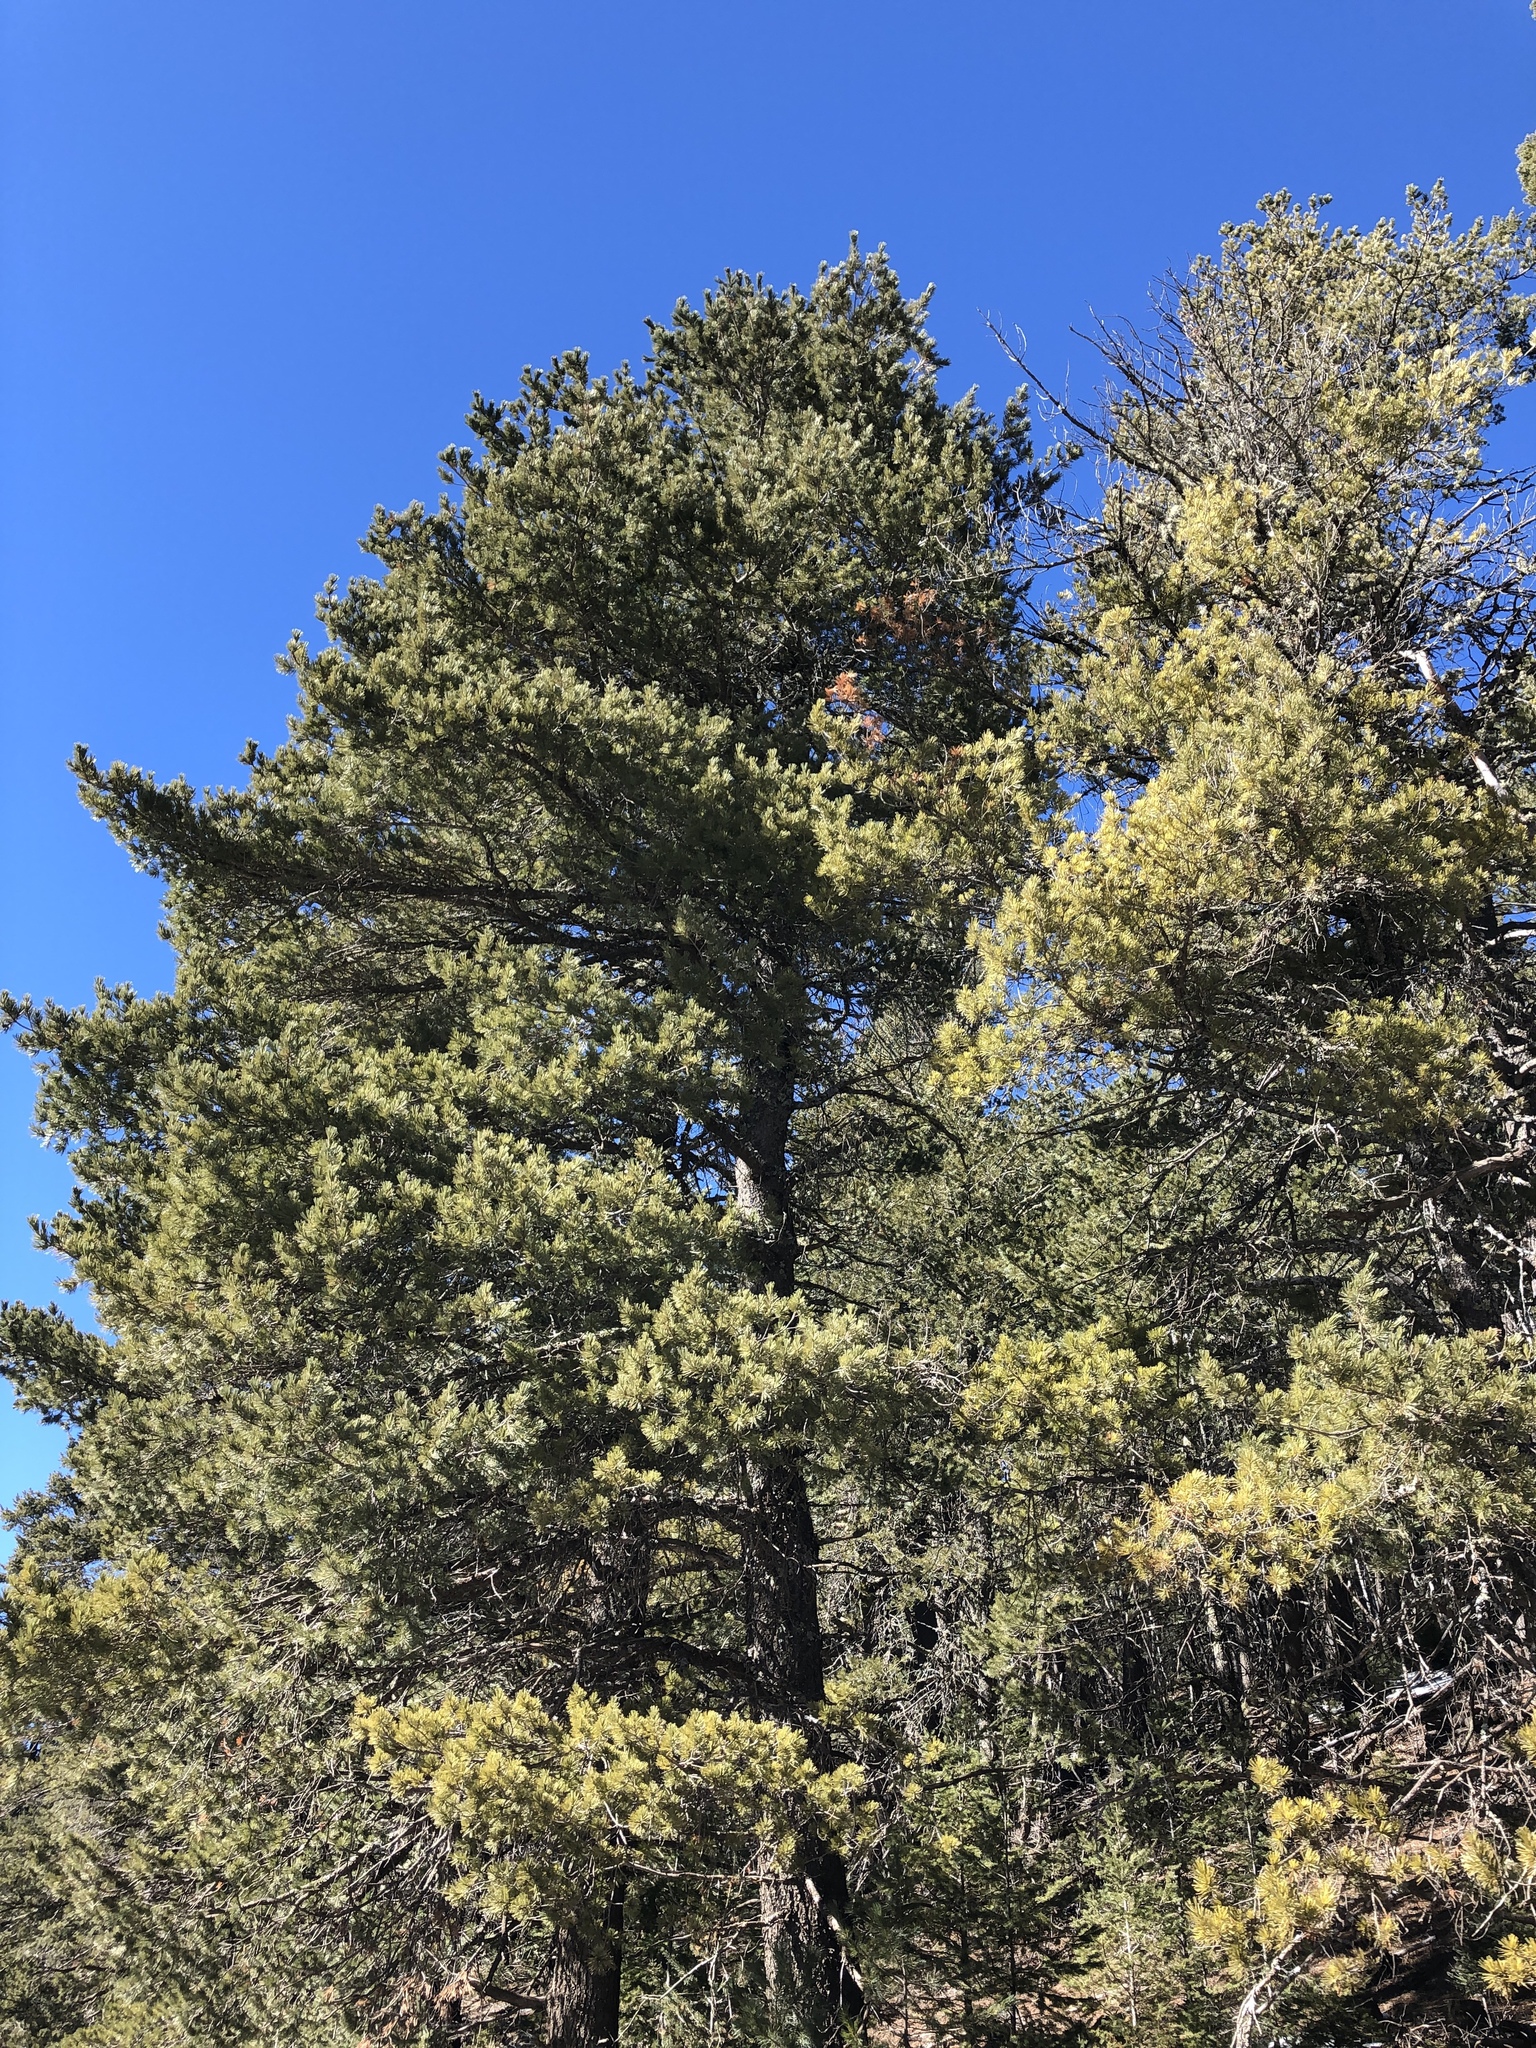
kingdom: Plantae
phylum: Tracheophyta
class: Pinopsida
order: Pinales
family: Pinaceae
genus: Pinus
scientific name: Pinus strobiformis
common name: Southwestern white pine
